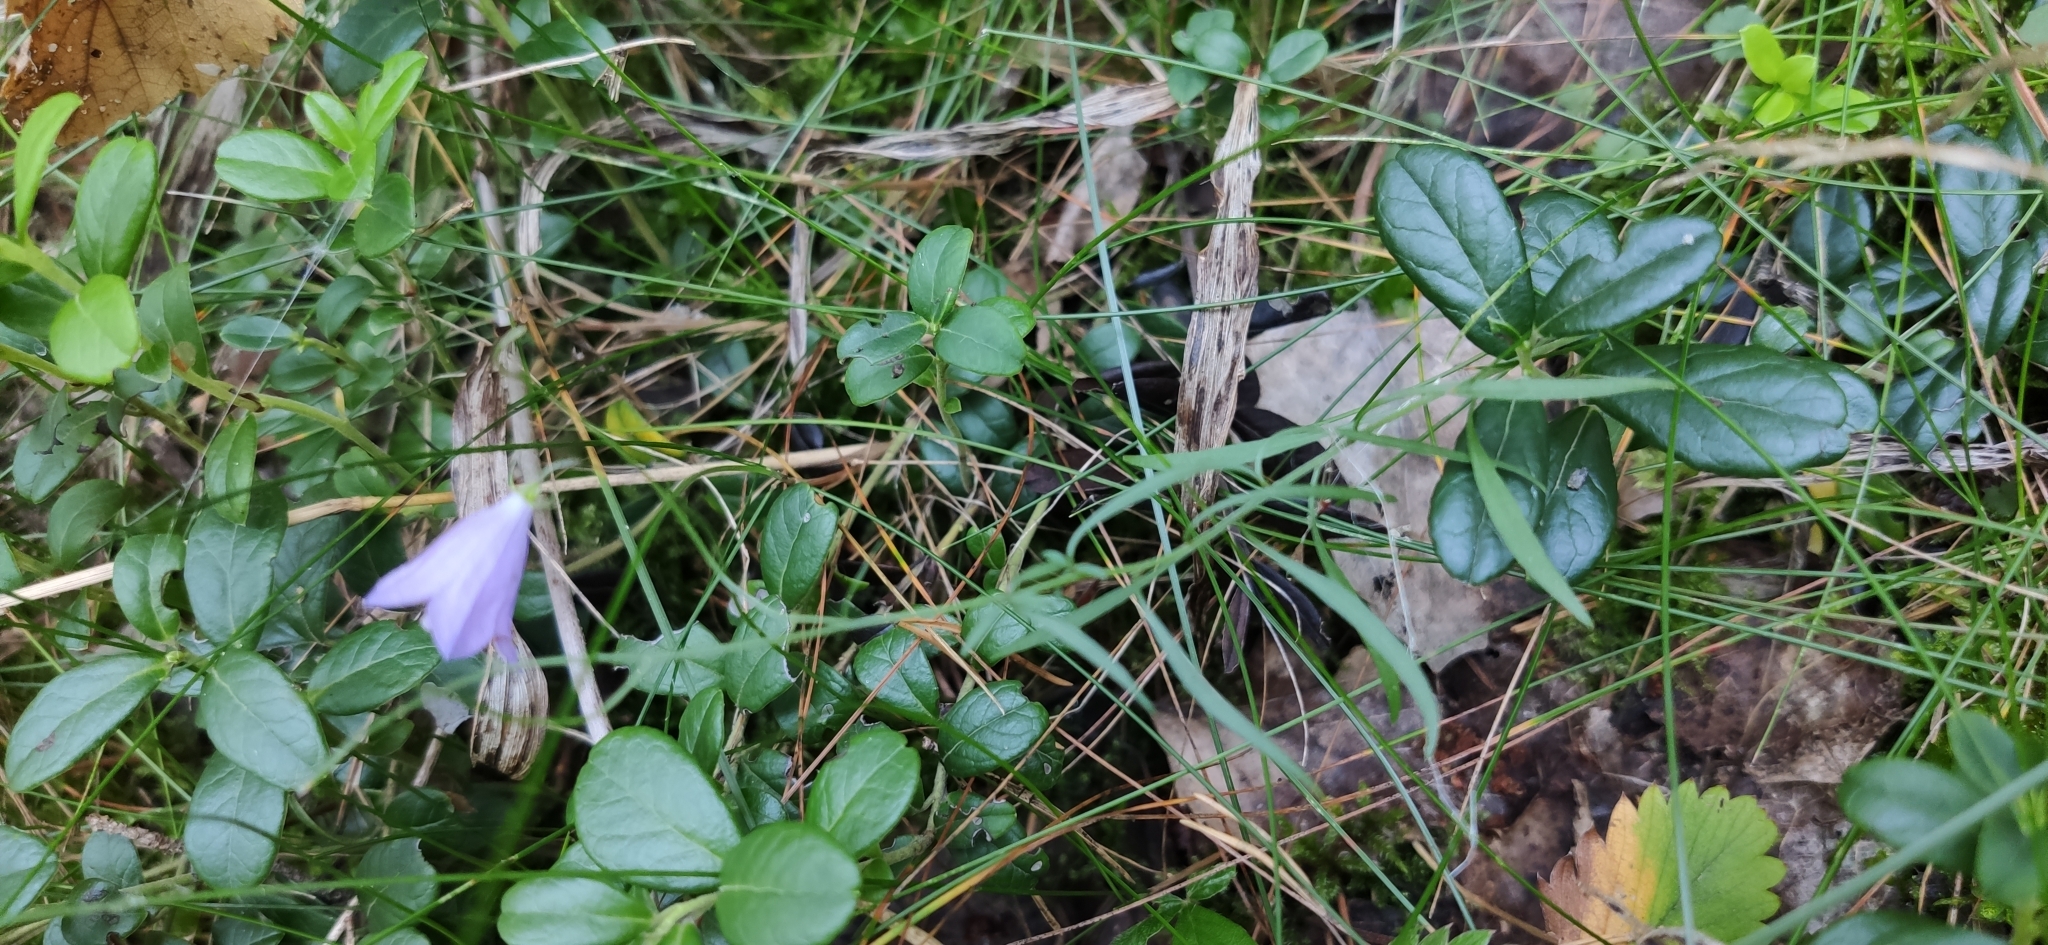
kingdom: Plantae
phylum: Tracheophyta
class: Magnoliopsida
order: Asterales
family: Campanulaceae
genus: Campanula
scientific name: Campanula rotundifolia
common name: Harebell
